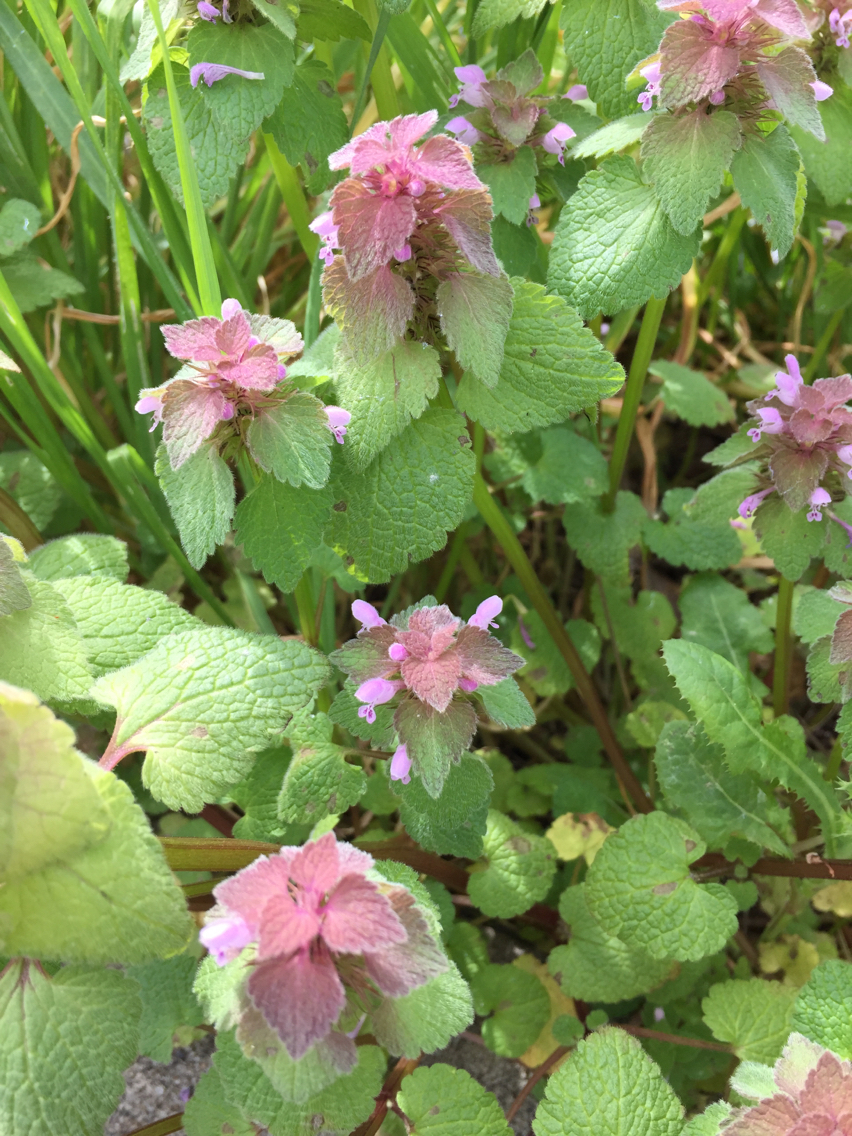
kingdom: Plantae
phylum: Tracheophyta
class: Magnoliopsida
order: Lamiales
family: Lamiaceae
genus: Lamium
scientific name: Lamium purpureum
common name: Red dead-nettle
